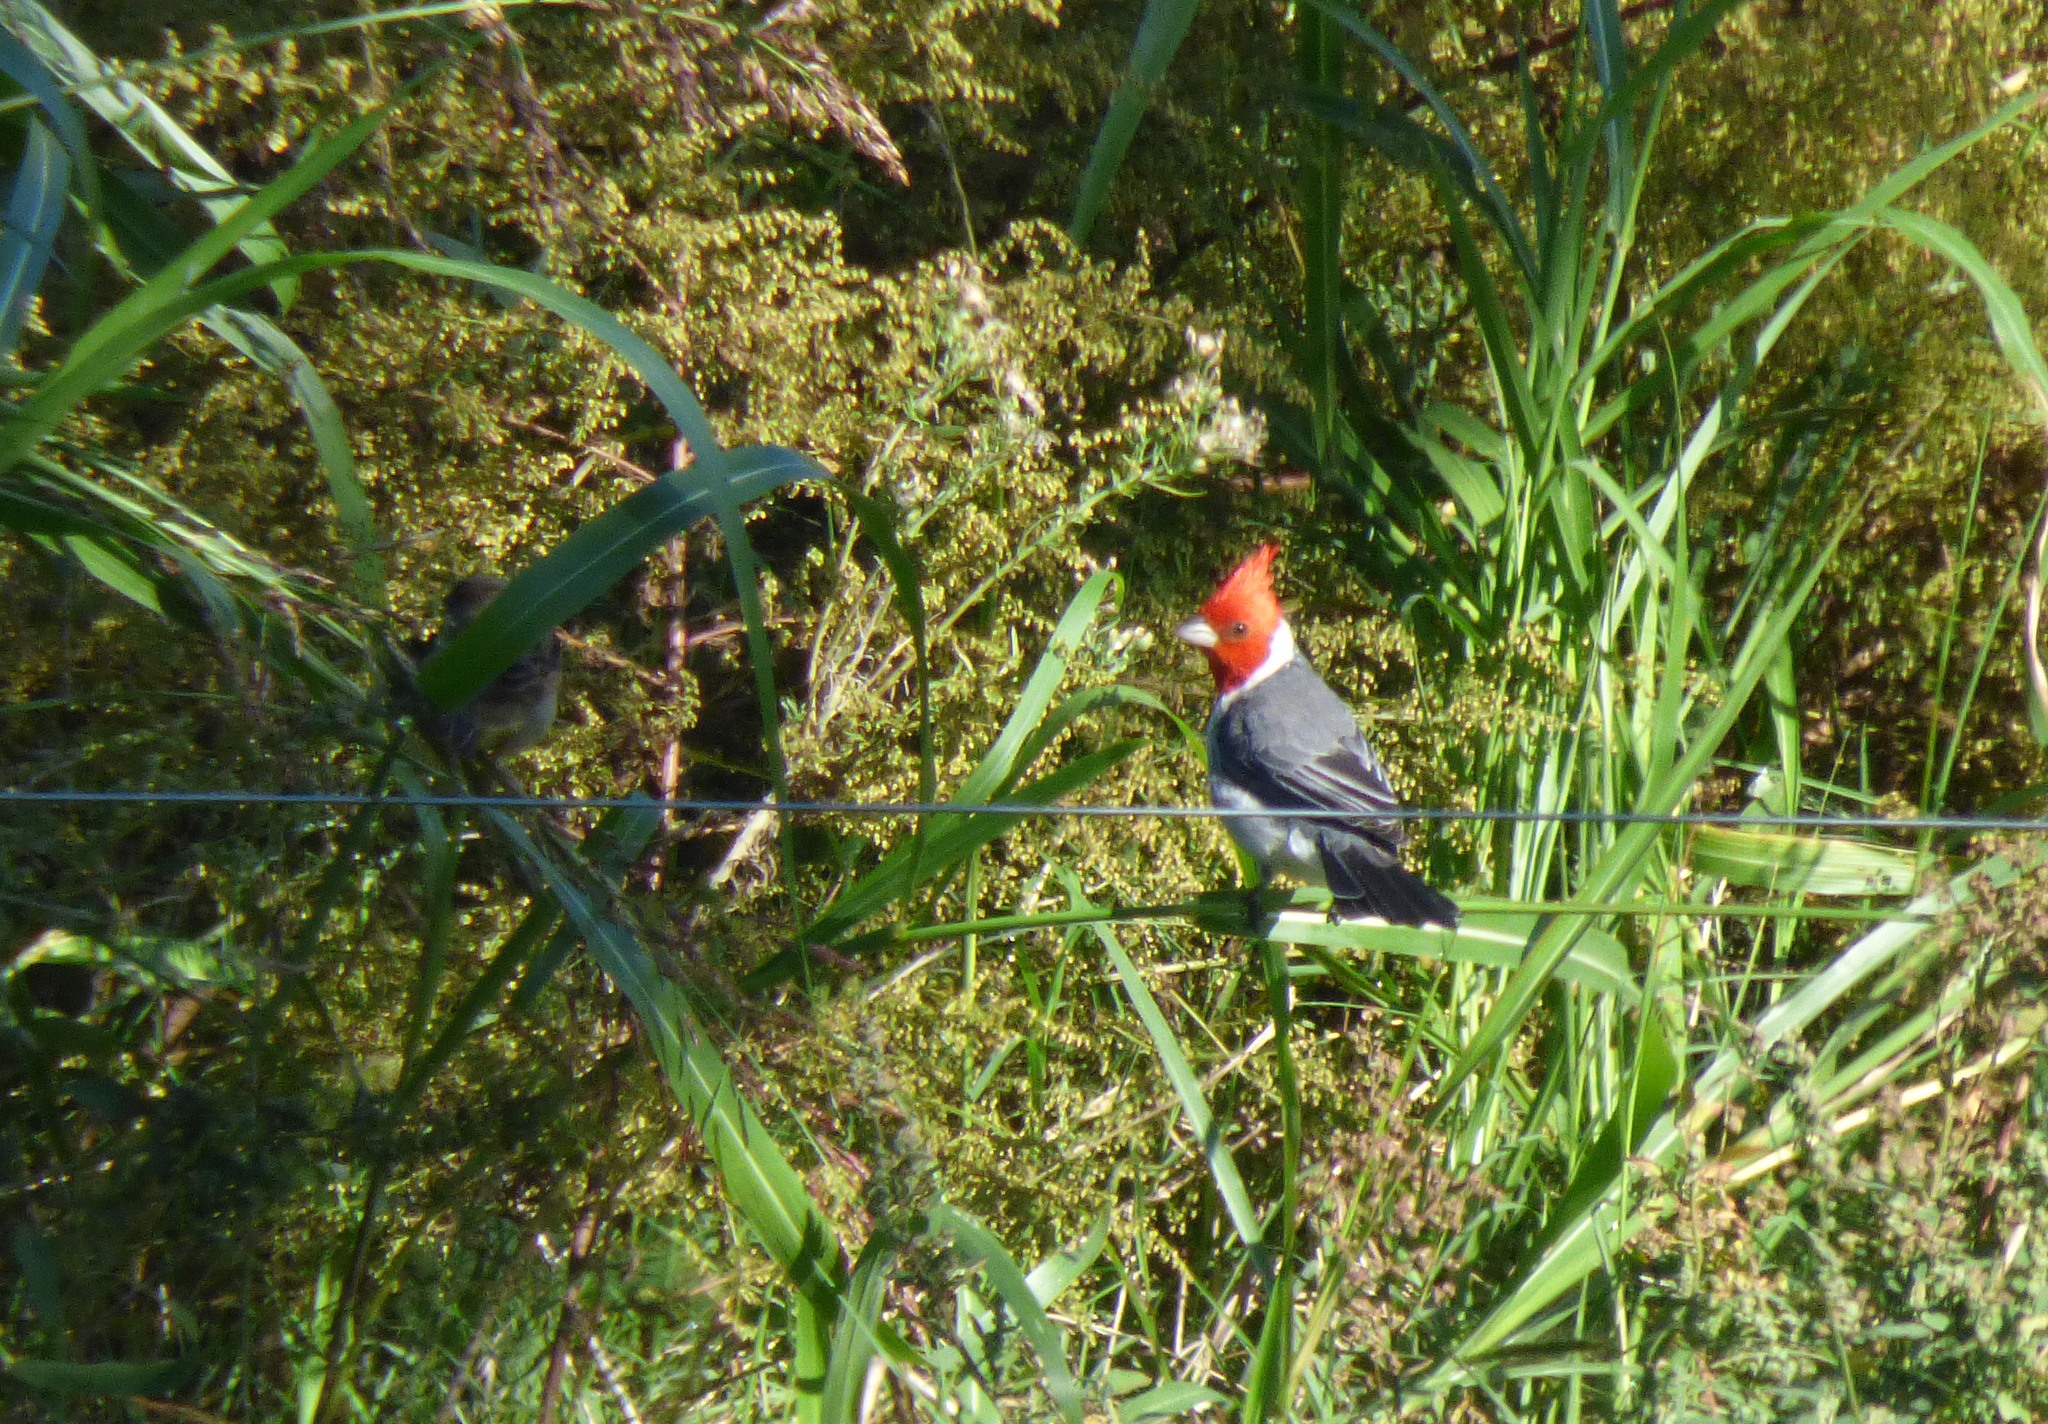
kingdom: Animalia
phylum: Chordata
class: Aves
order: Passeriformes
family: Thraupidae
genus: Paroaria
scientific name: Paroaria coronata
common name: Red-crested cardinal
